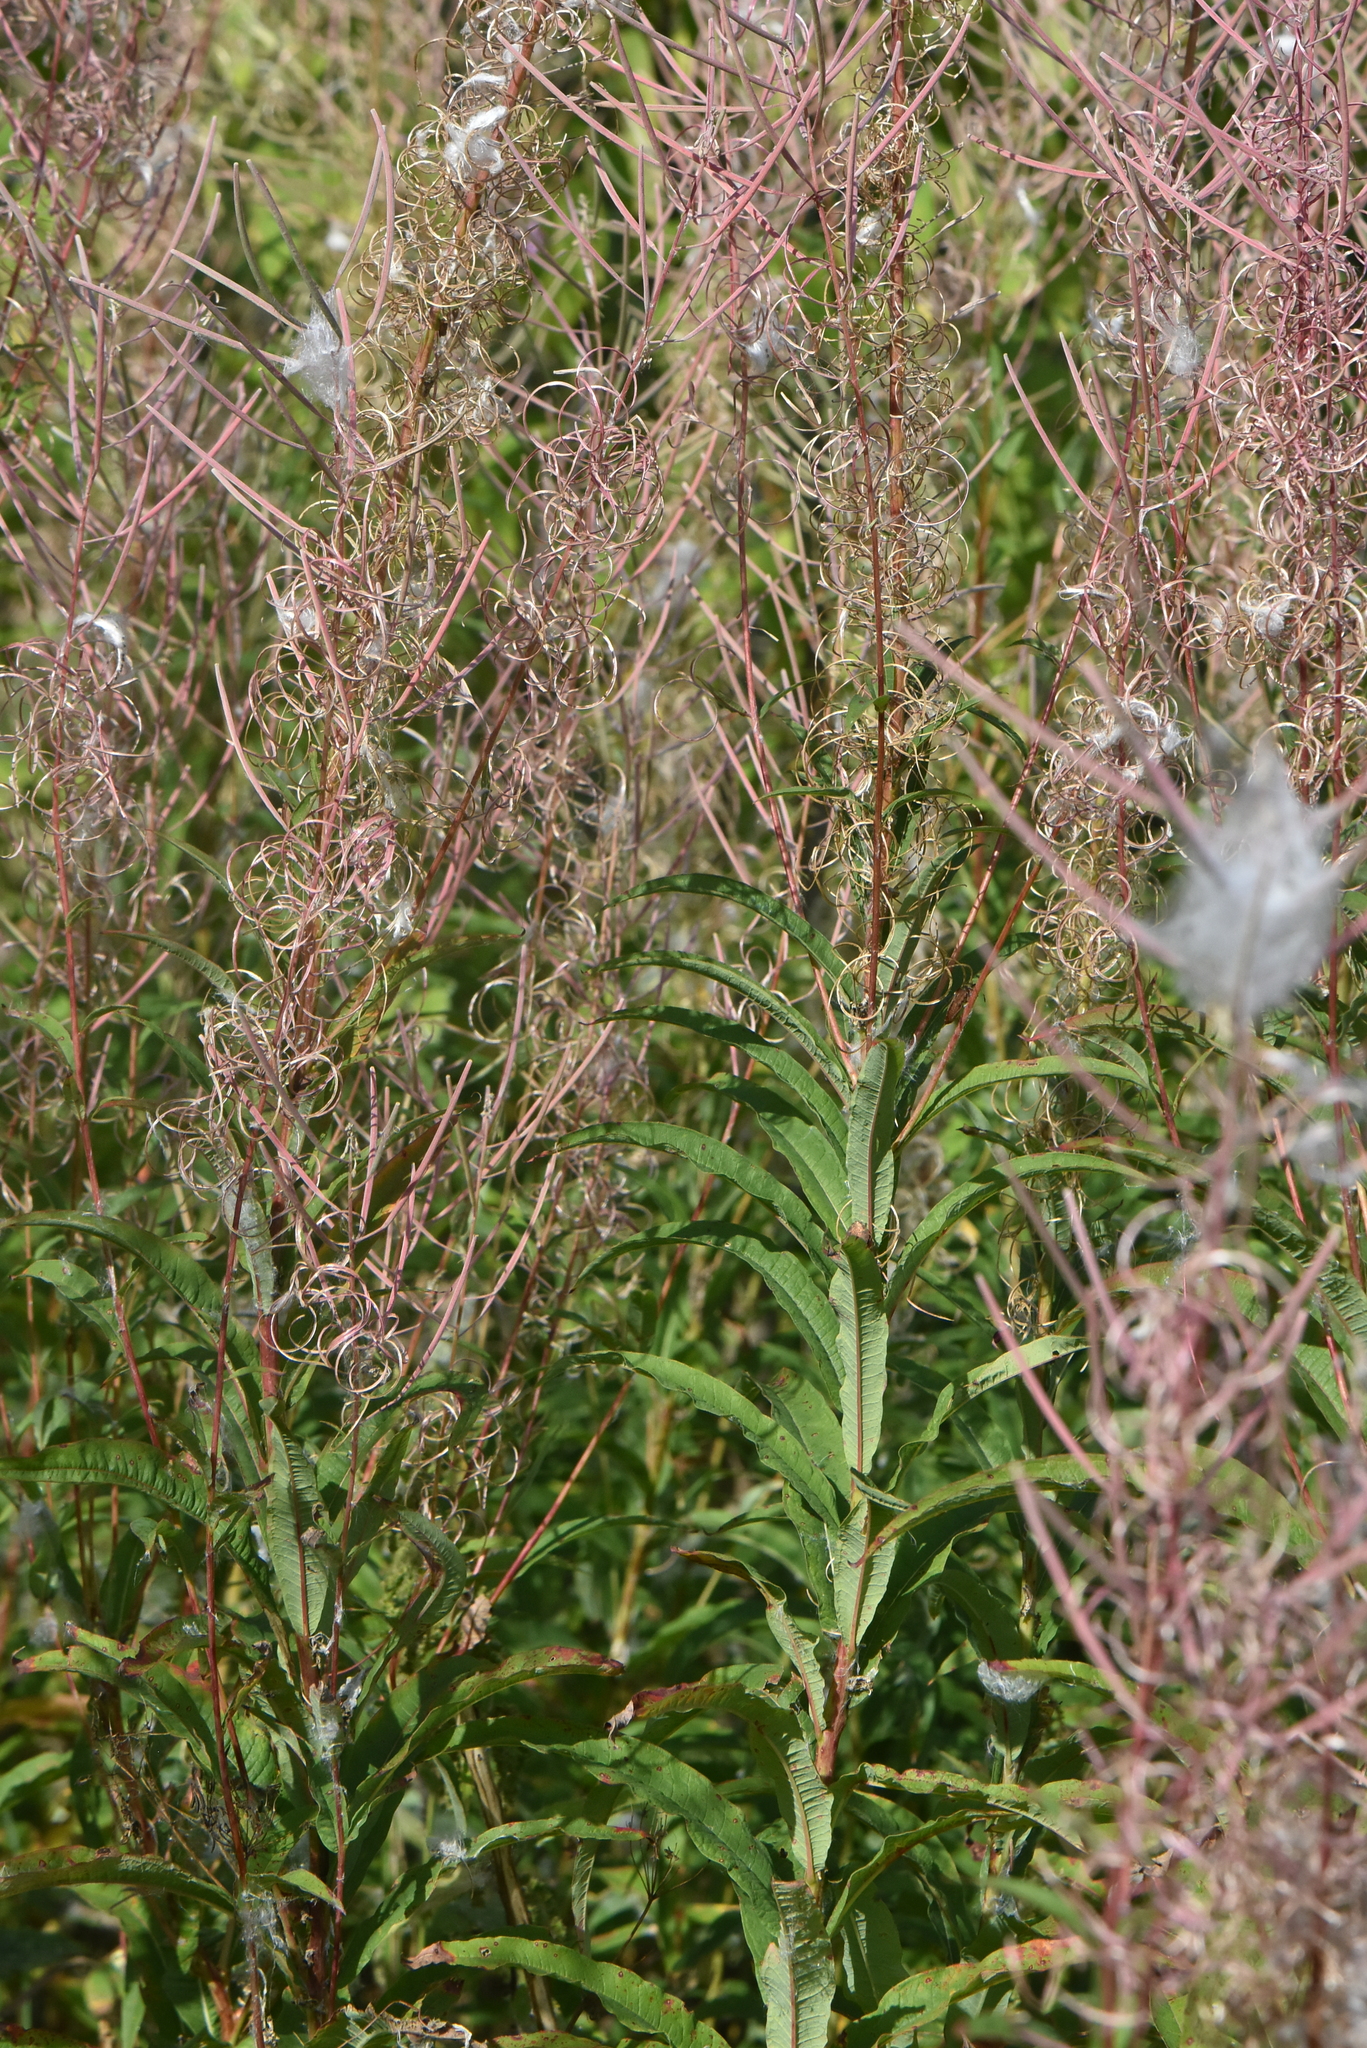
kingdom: Plantae
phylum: Tracheophyta
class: Magnoliopsida
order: Myrtales
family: Onagraceae
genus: Chamaenerion
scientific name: Chamaenerion angustifolium
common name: Fireweed
